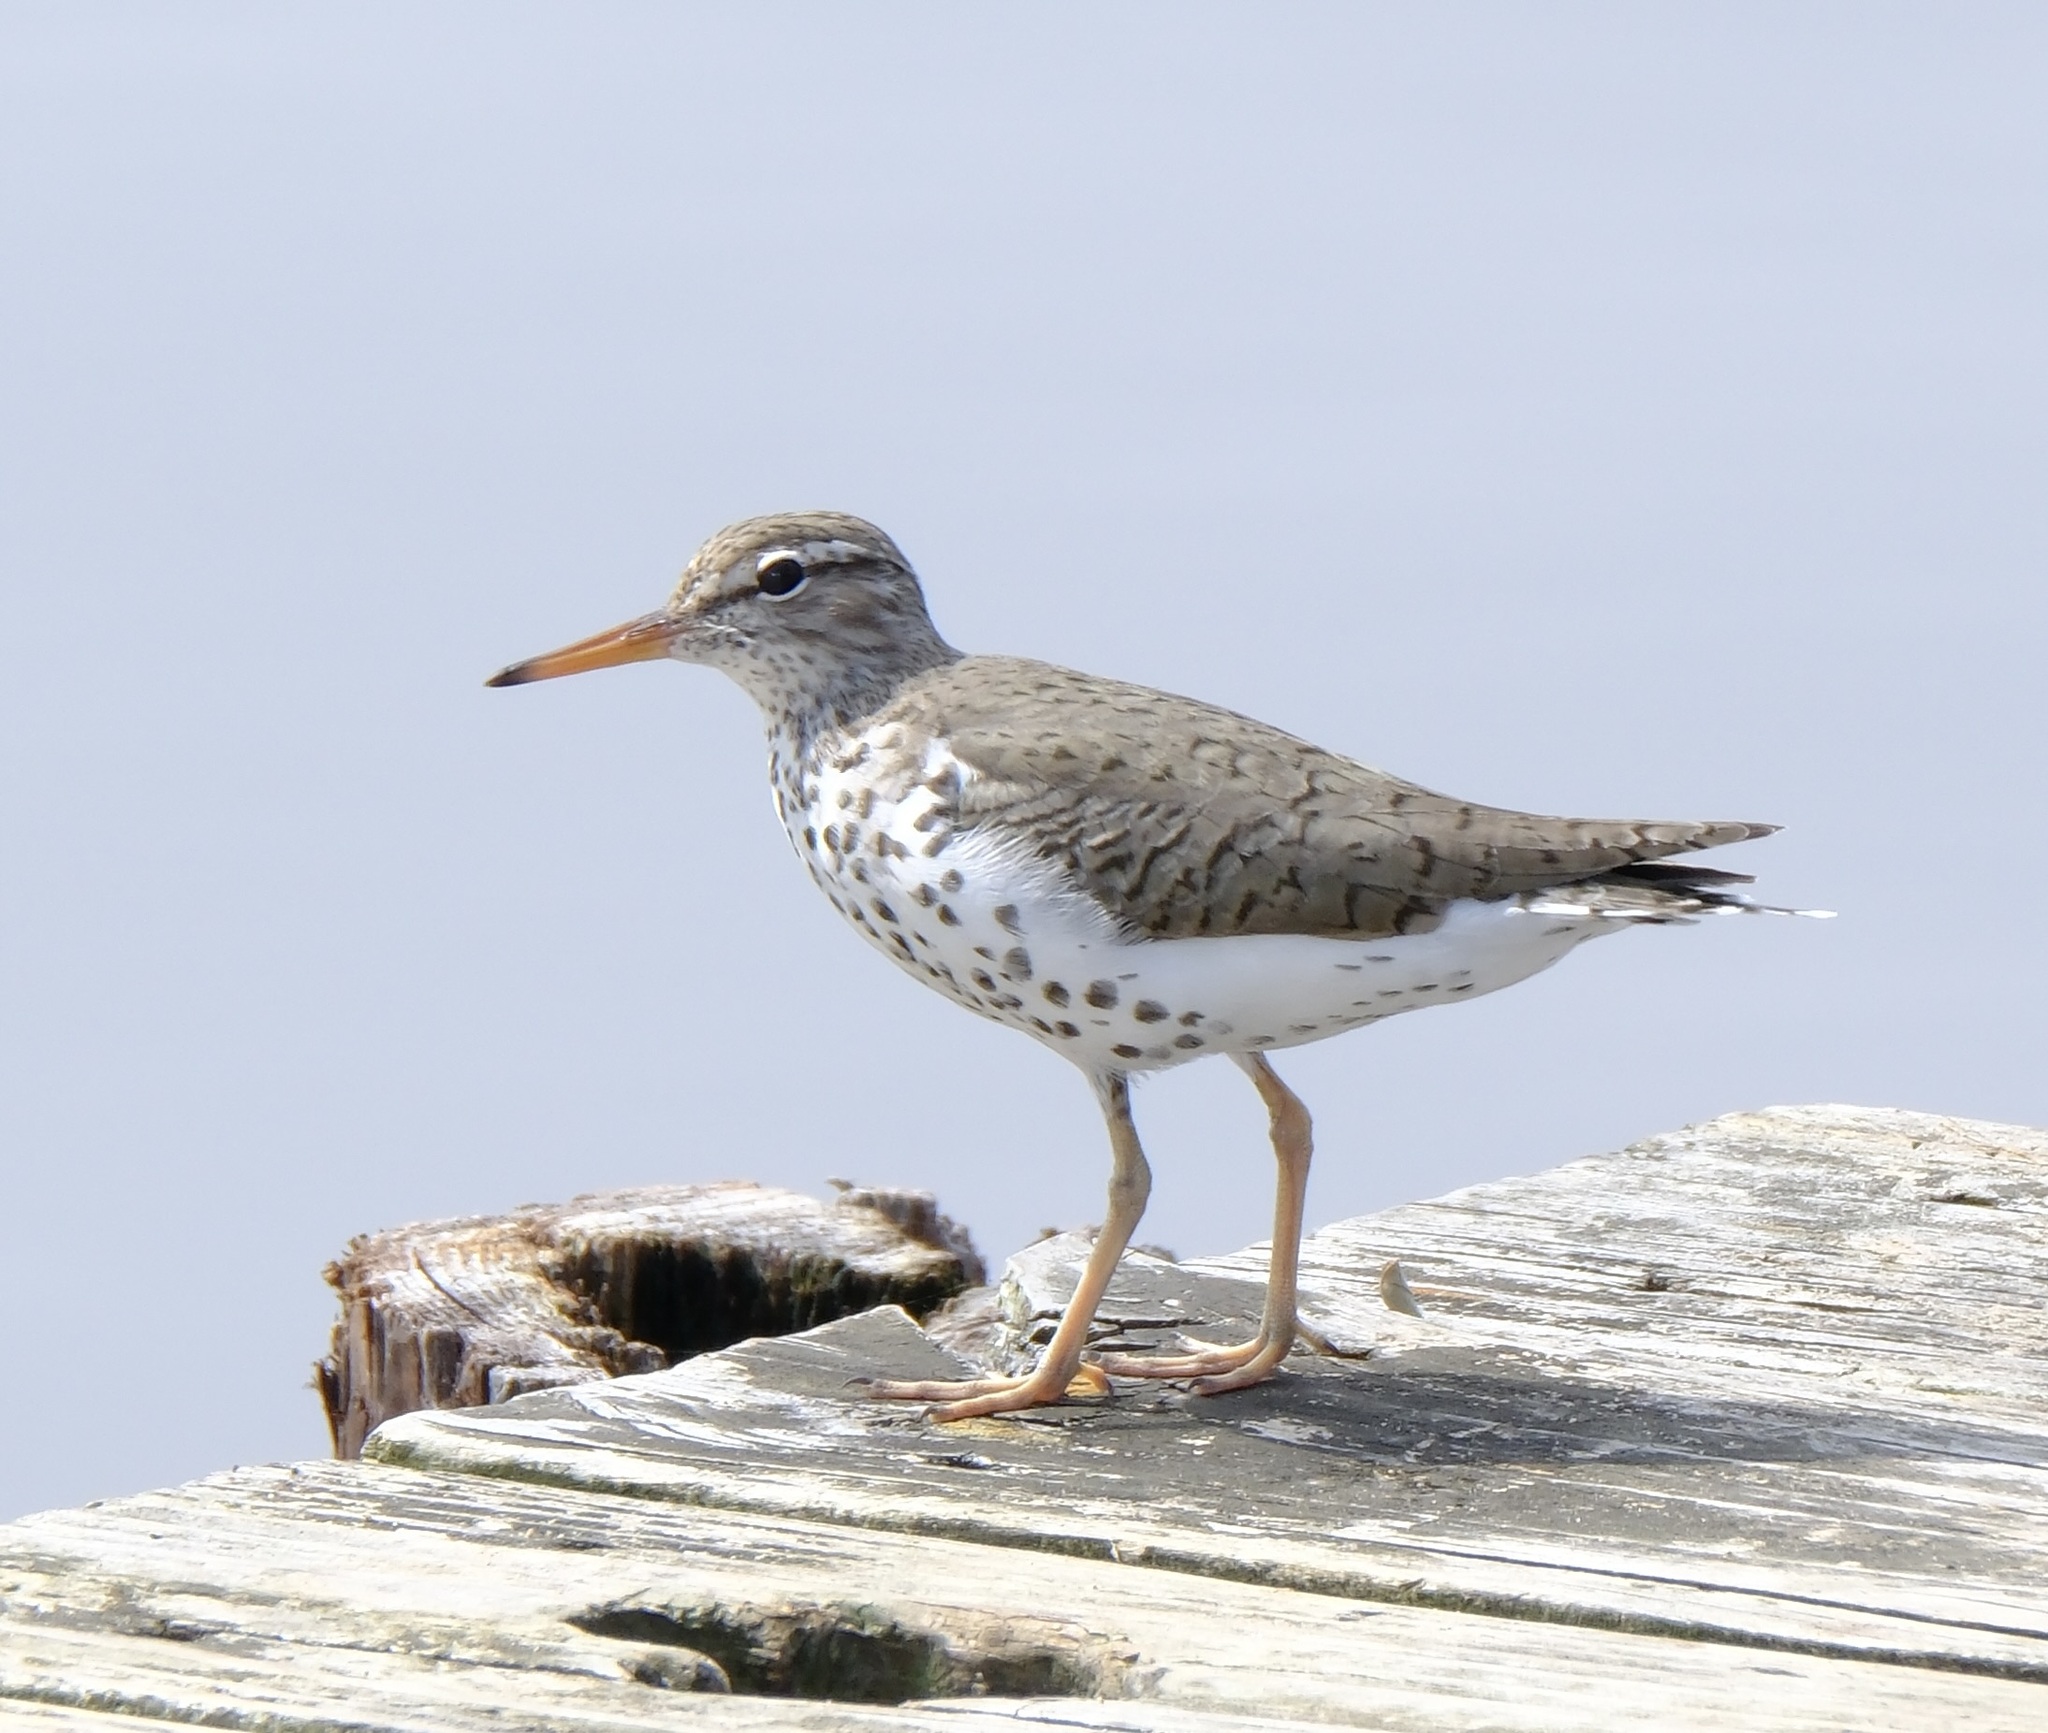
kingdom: Animalia
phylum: Chordata
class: Aves
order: Charadriiformes
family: Scolopacidae
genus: Actitis
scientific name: Actitis macularius
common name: Spotted sandpiper
